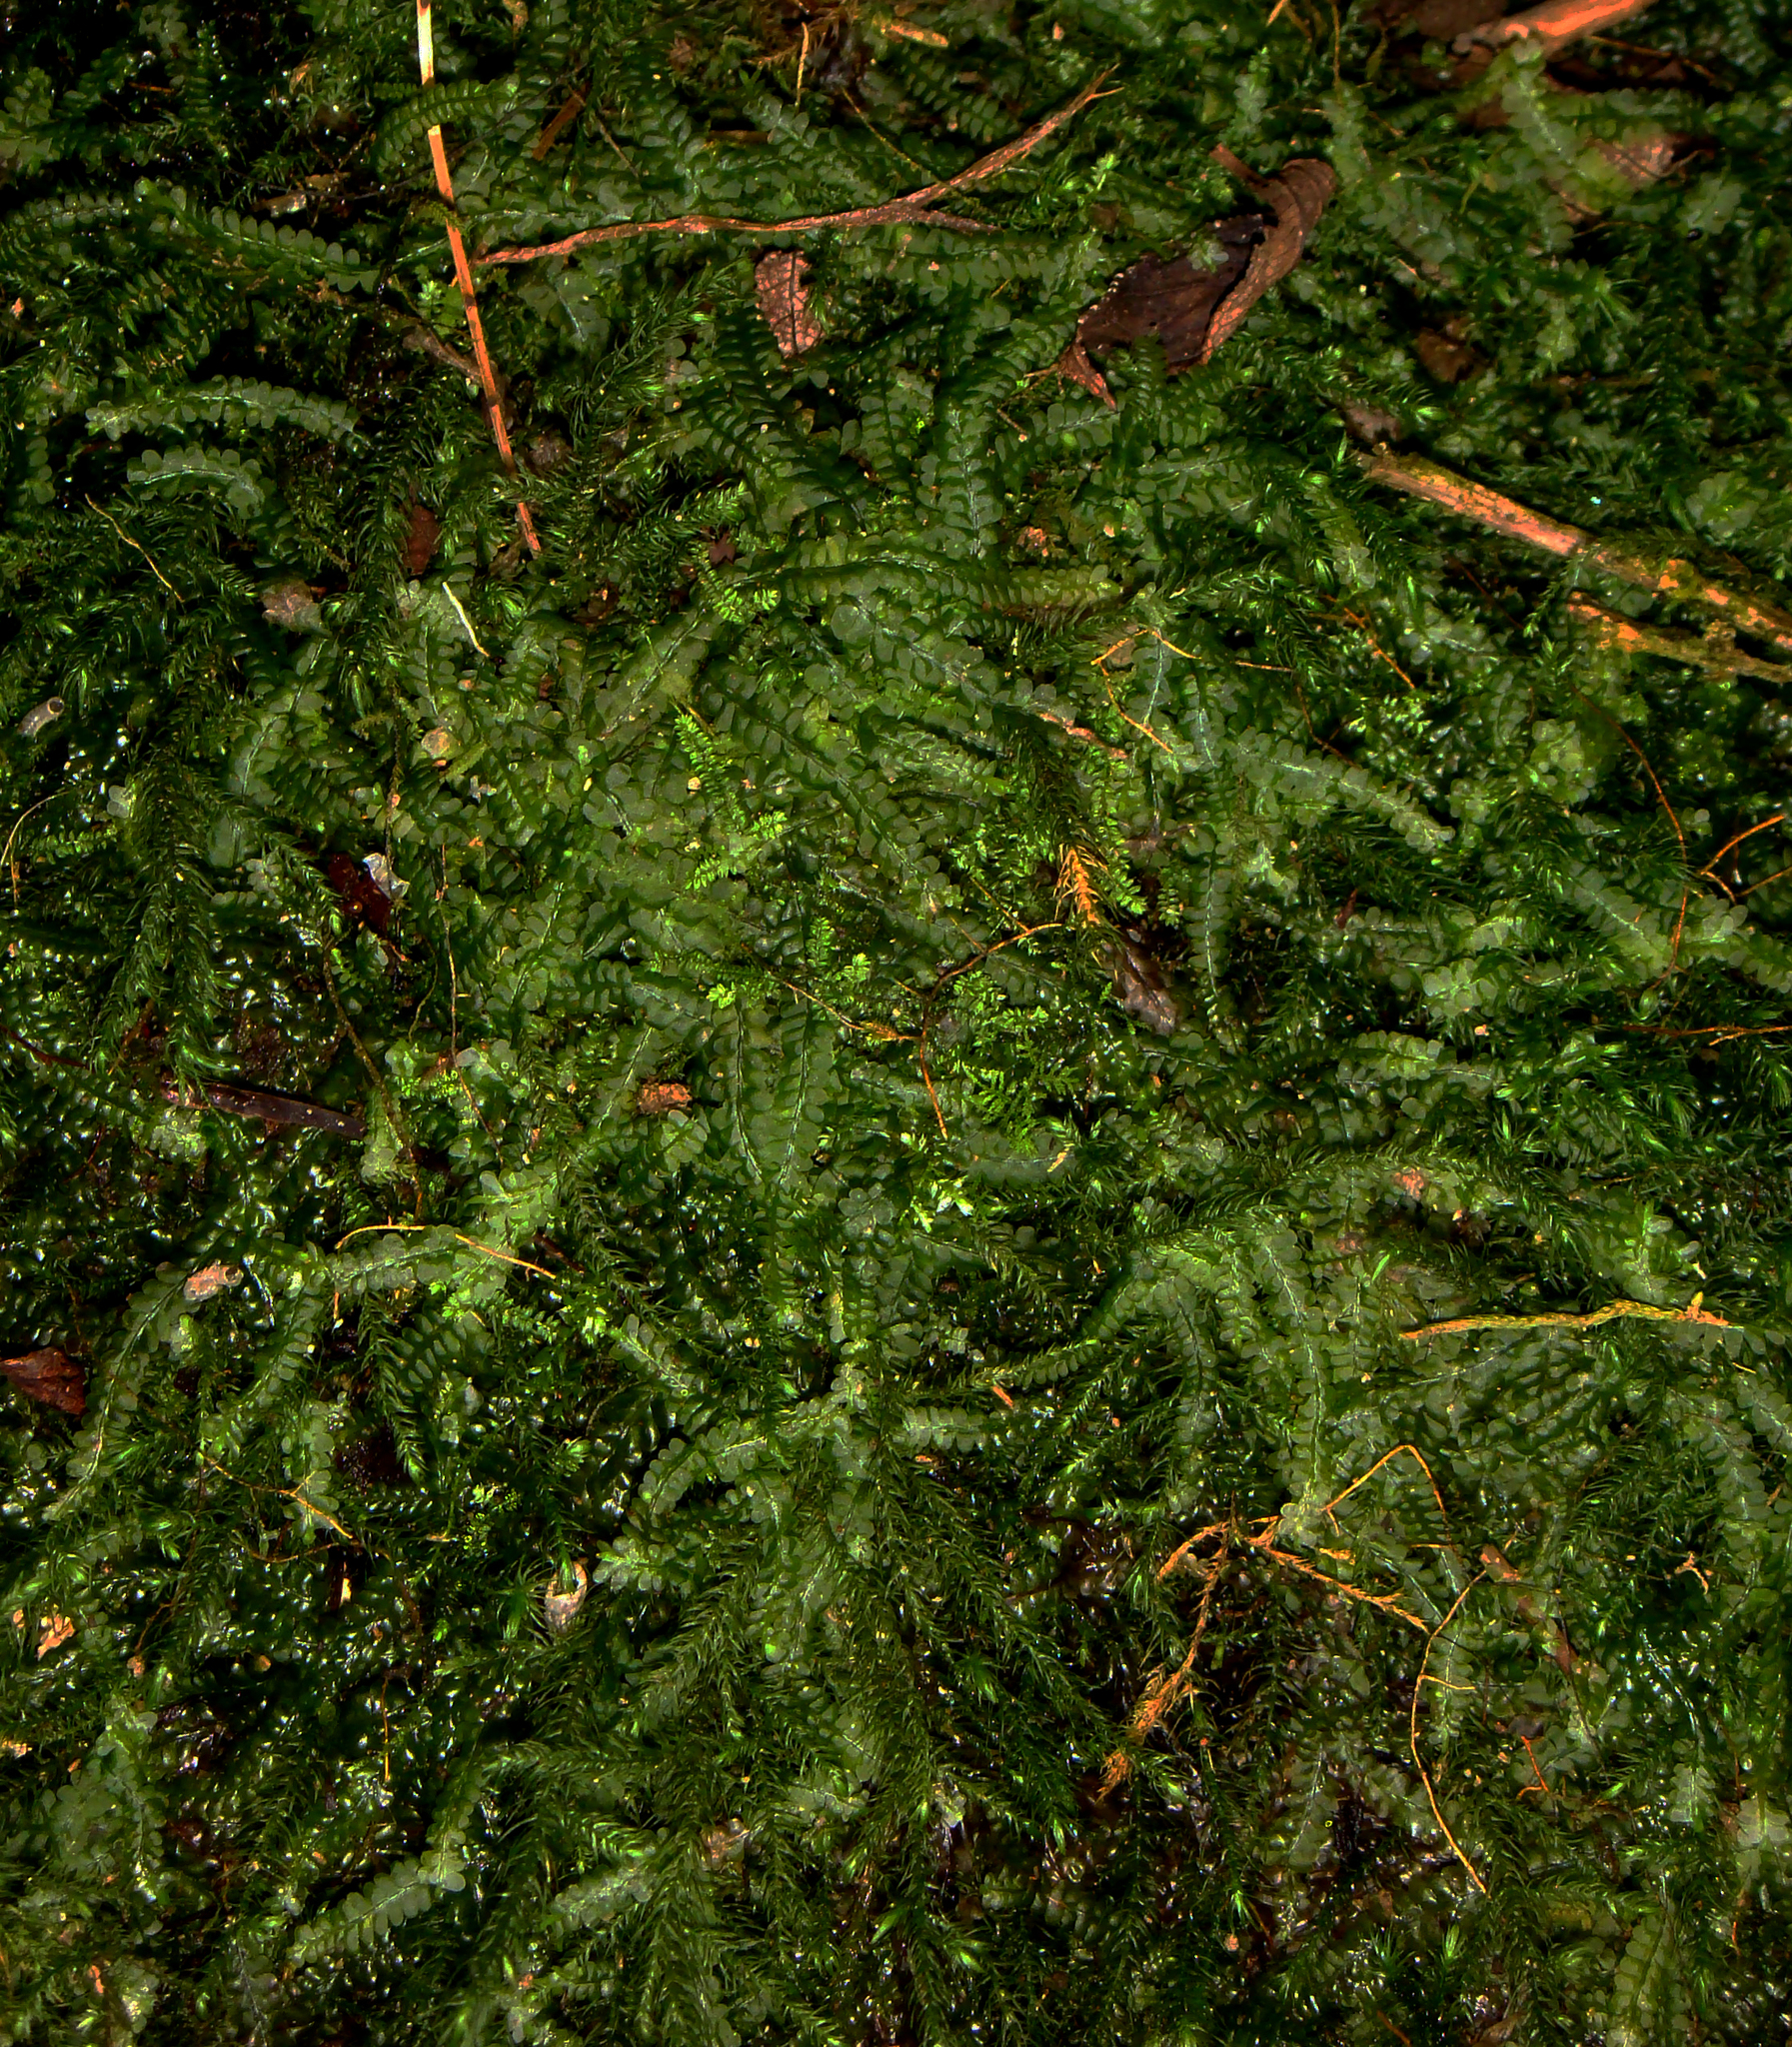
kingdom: Plantae
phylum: Marchantiophyta
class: Jungermanniopsida
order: Jungermanniales
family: Lophocoleaceae
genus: Heteroscyphus
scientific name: Heteroscyphus argutus
